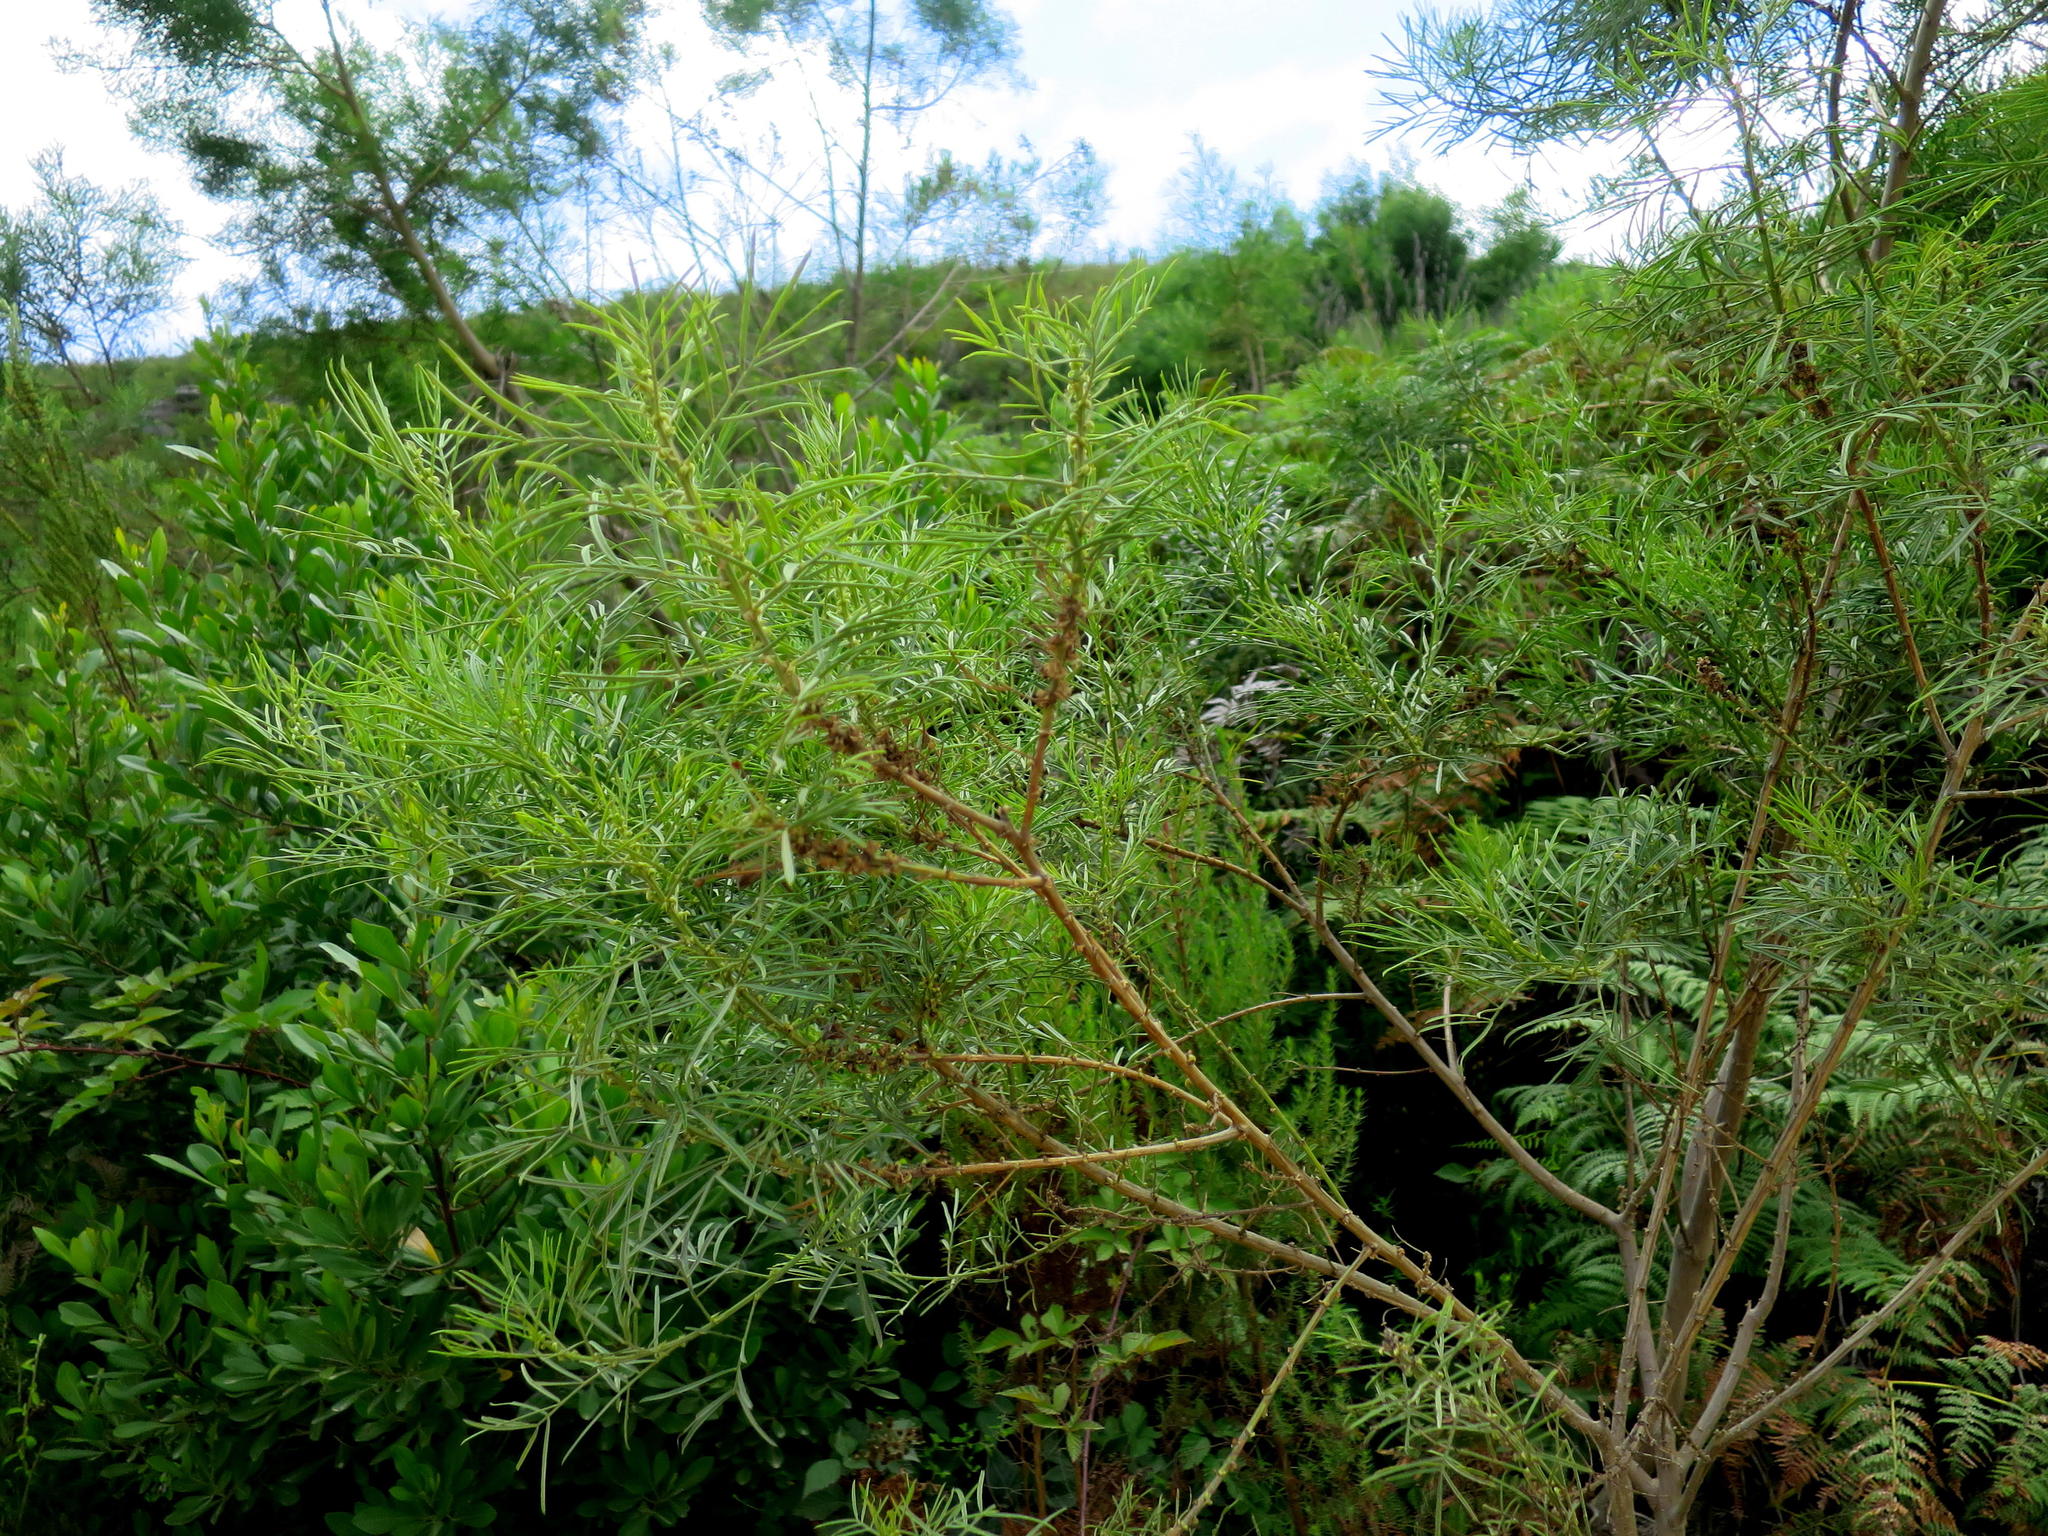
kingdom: Plantae
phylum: Tracheophyta
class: Magnoliopsida
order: Fabales
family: Fabaceae
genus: Psoralea
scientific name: Psoralea affinis
